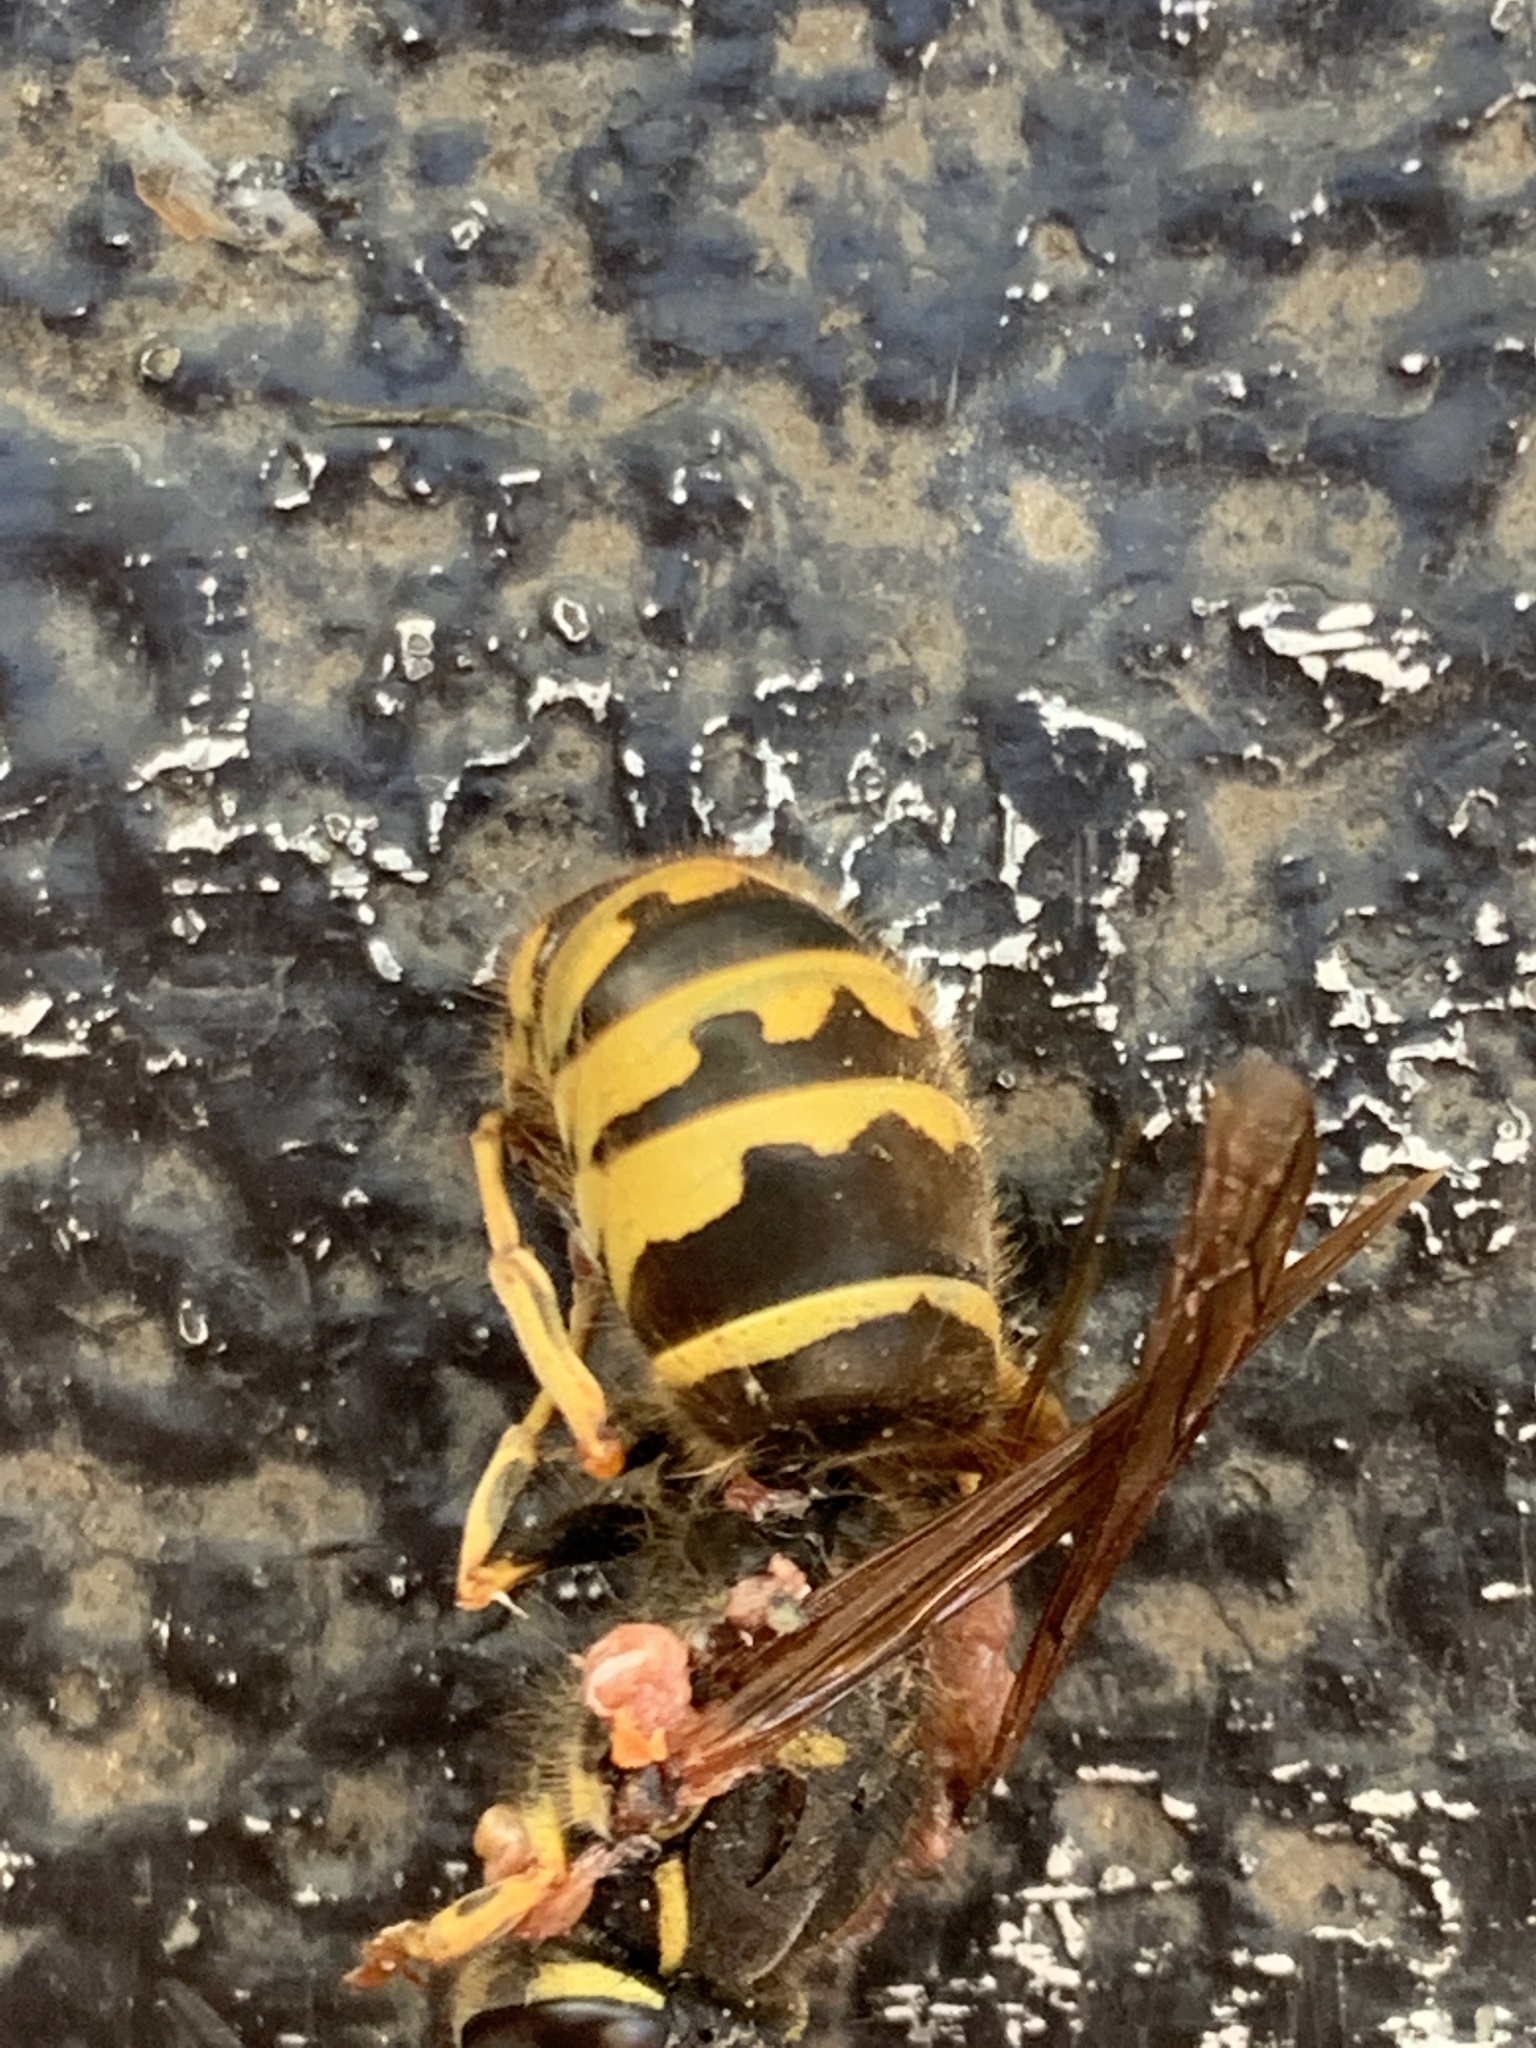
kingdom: Animalia
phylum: Arthropoda
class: Insecta
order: Hymenoptera
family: Vespidae
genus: Vespula
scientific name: Vespula alascensis
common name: Alaska yellowjacket
